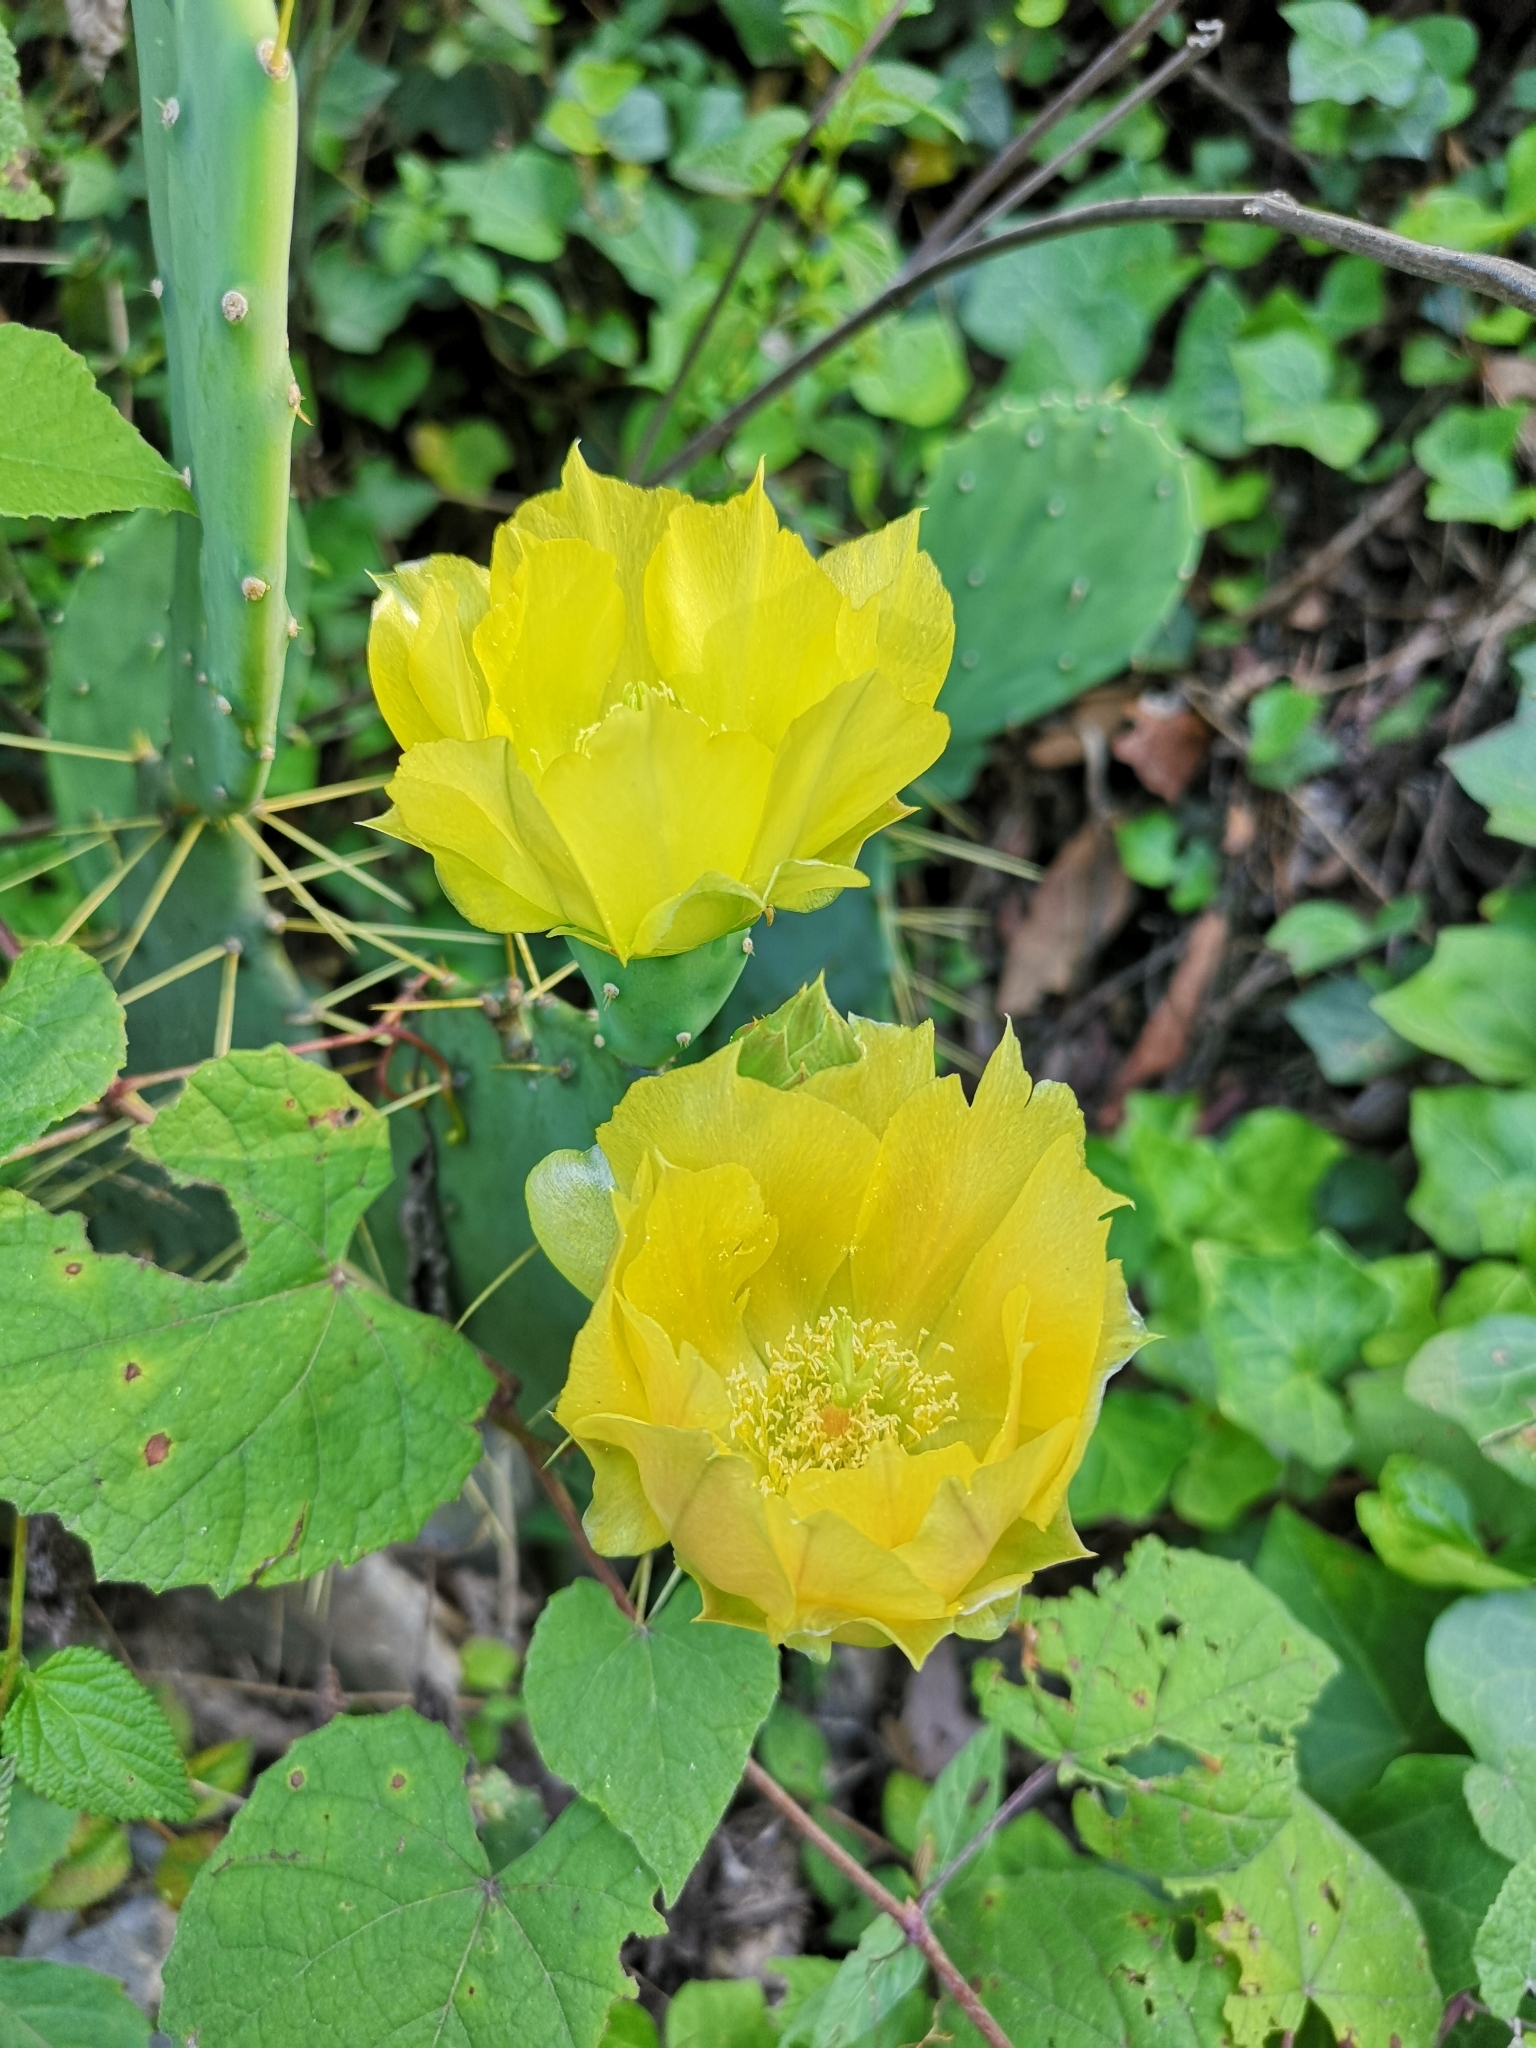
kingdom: Plantae
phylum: Tracheophyta
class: Magnoliopsida
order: Caryophyllales
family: Cactaceae
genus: Opuntia
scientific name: Opuntia engelmannii
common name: Cactus-apple
